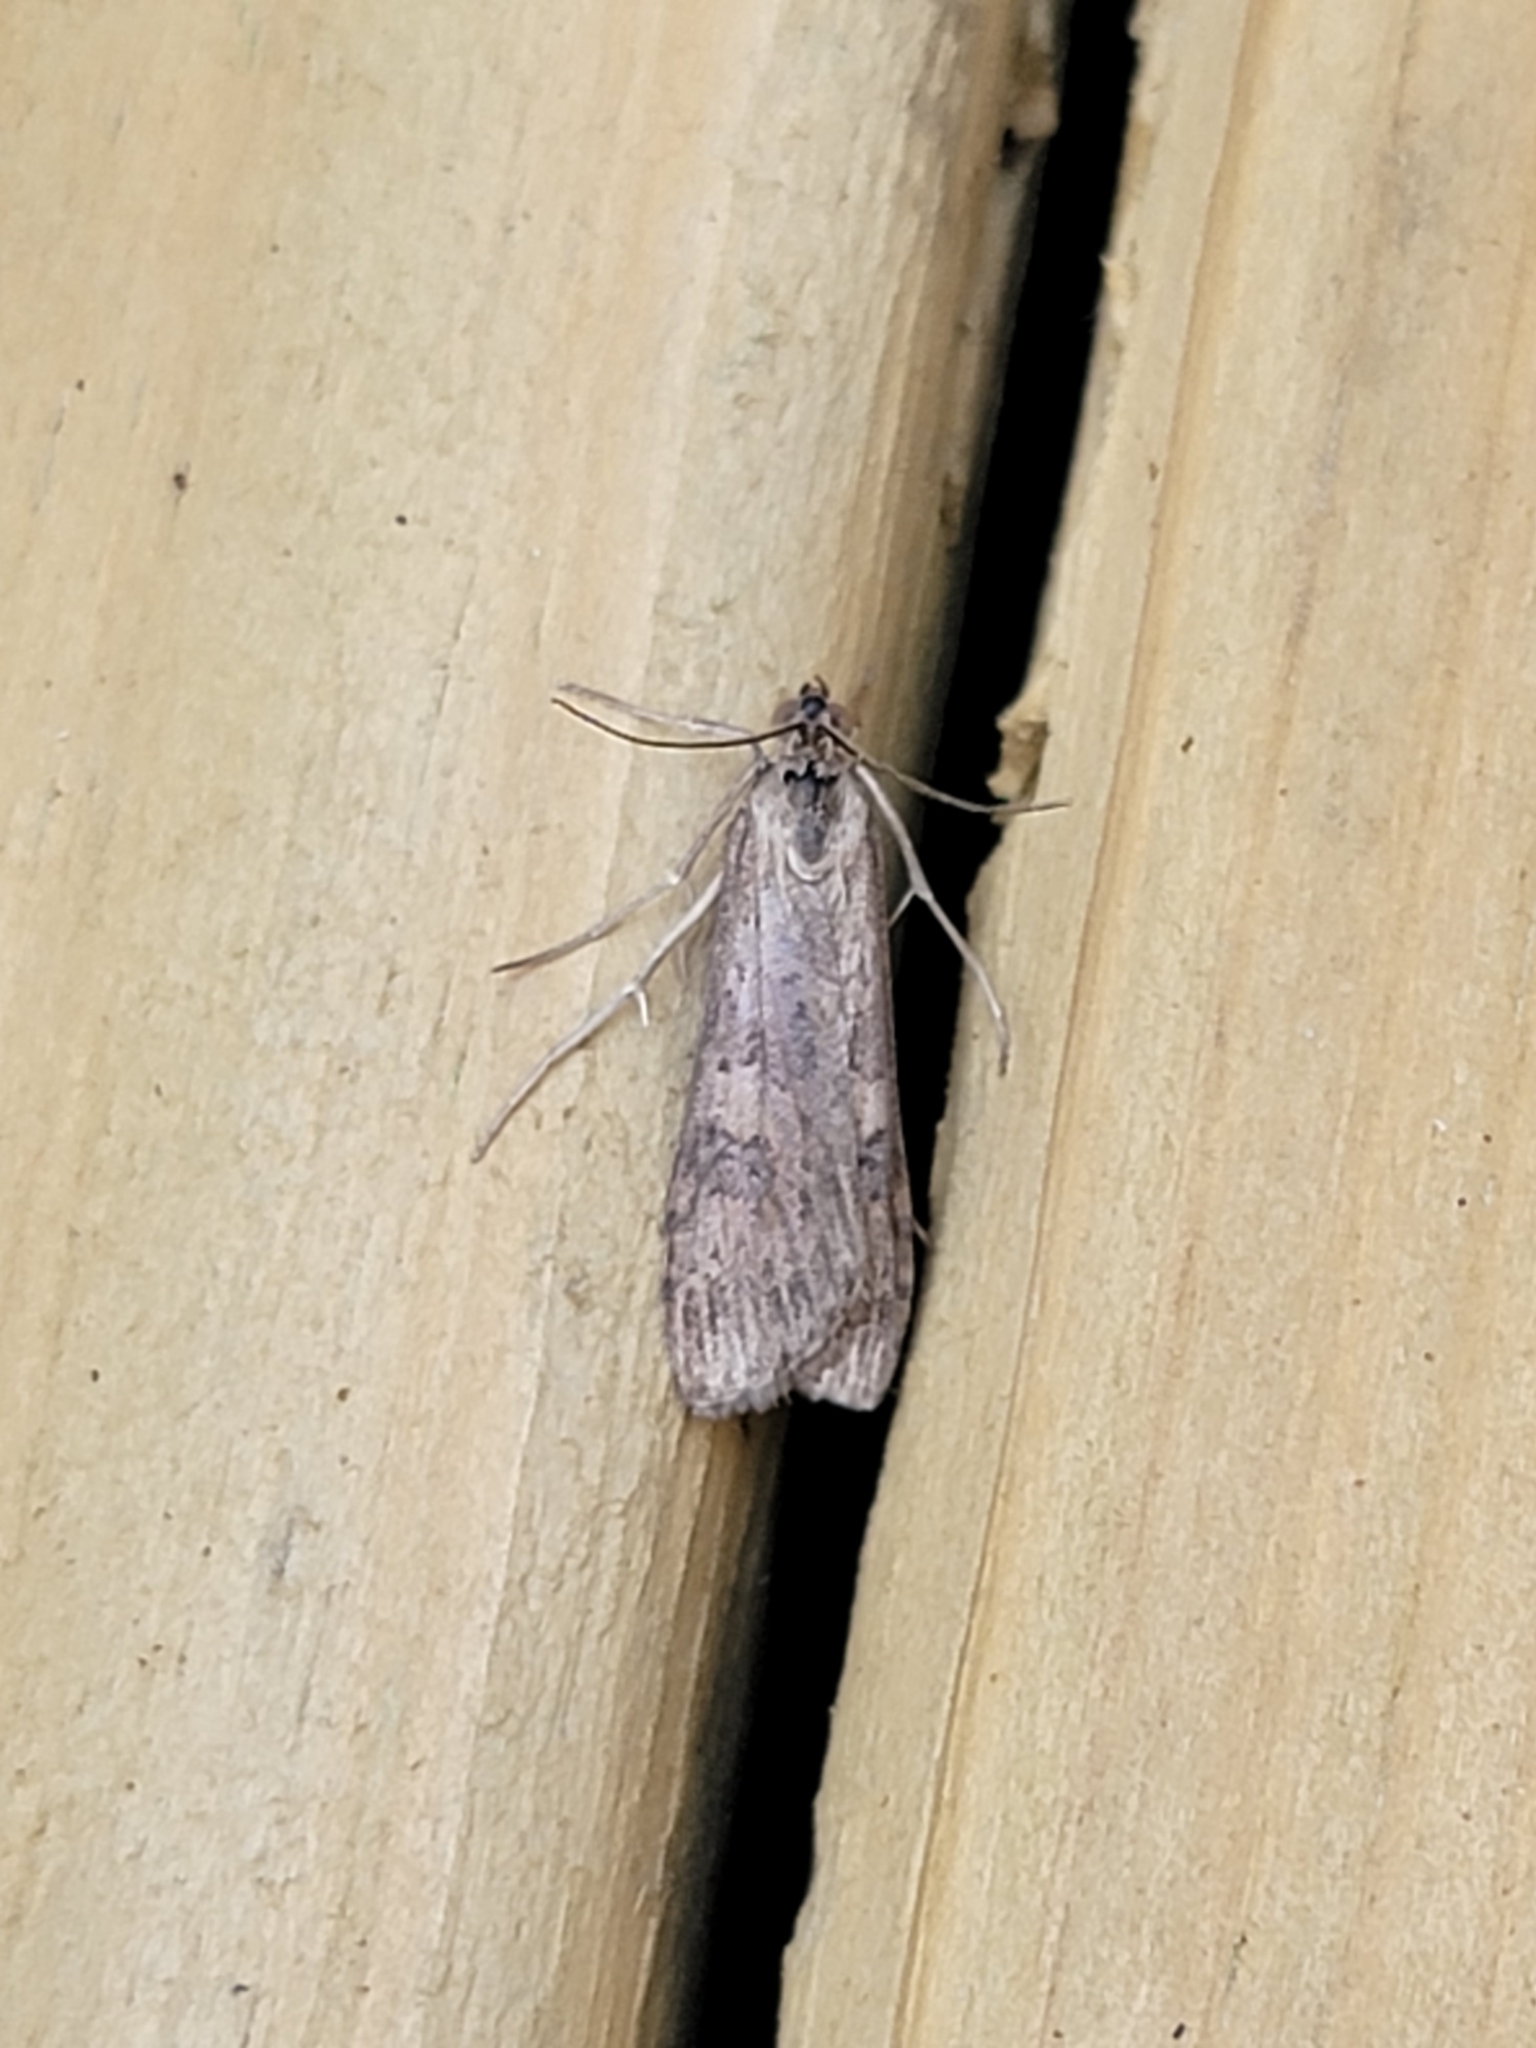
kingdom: Animalia
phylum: Arthropoda
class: Insecta
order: Lepidoptera
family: Crambidae
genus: Nomophila
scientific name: Nomophila nearctica
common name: American rush veneer
